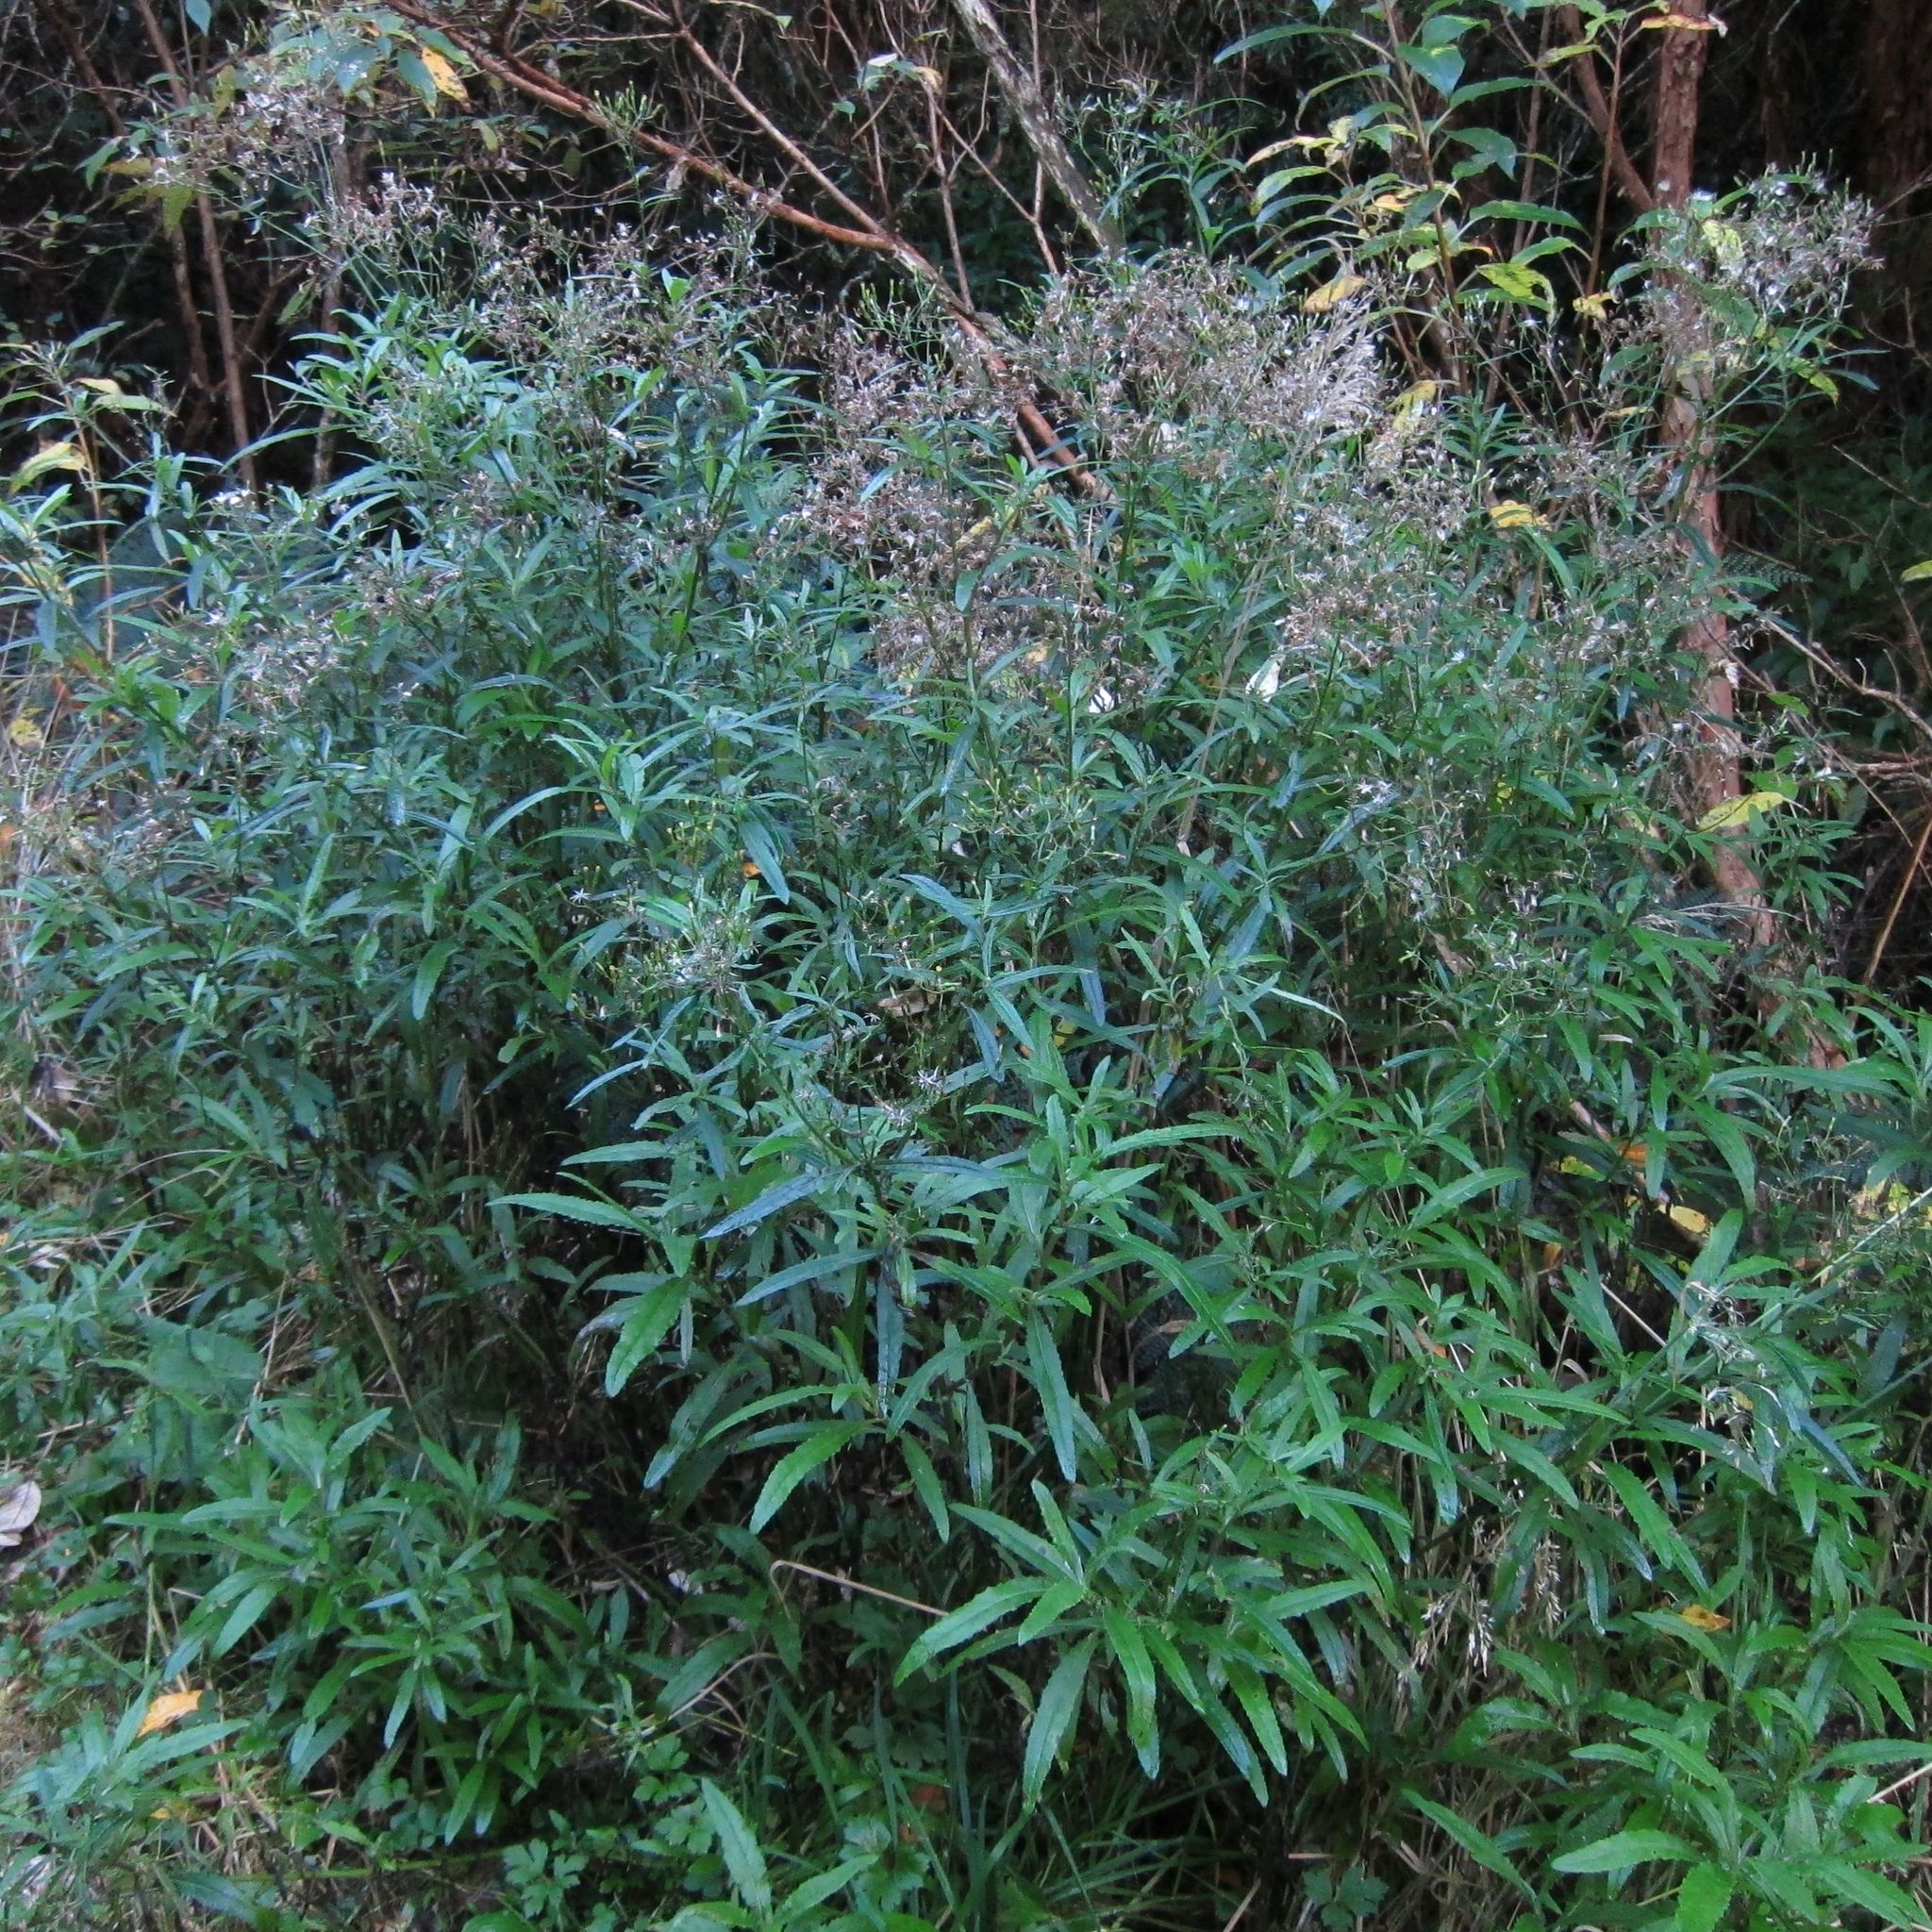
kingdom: Plantae
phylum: Tracheophyta
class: Magnoliopsida
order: Asterales
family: Asteraceae
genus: Senecio
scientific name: Senecio minimus
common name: Toothed fireweed
